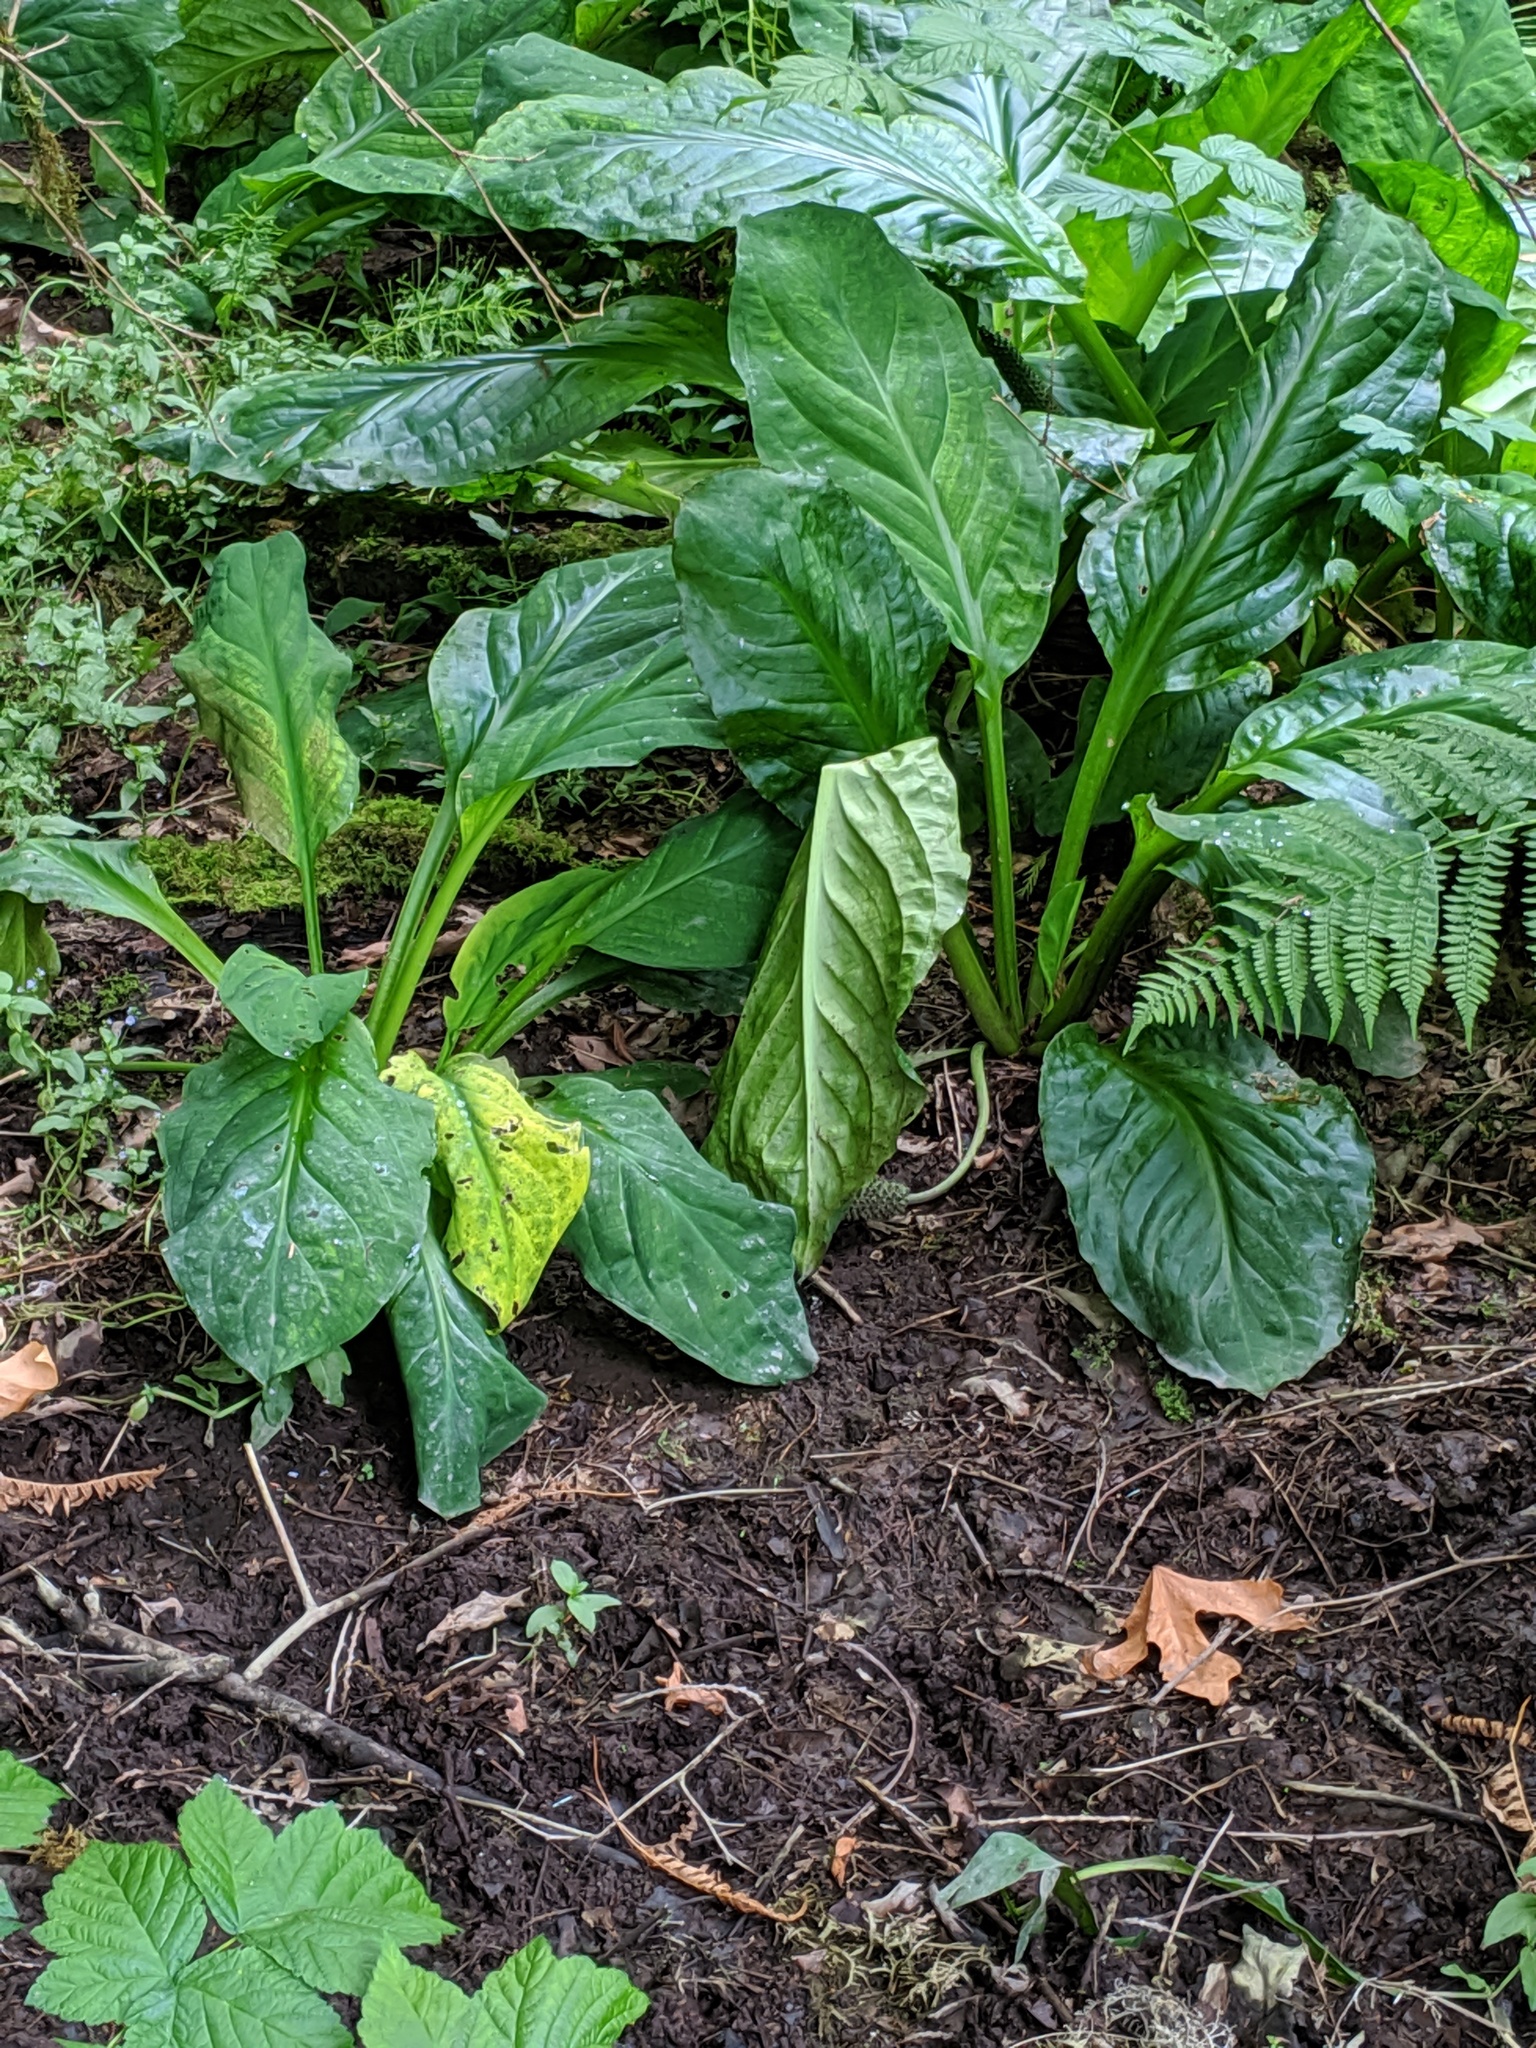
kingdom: Plantae
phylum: Tracheophyta
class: Liliopsida
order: Alismatales
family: Araceae
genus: Lysichiton
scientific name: Lysichiton americanus
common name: American skunk cabbage
